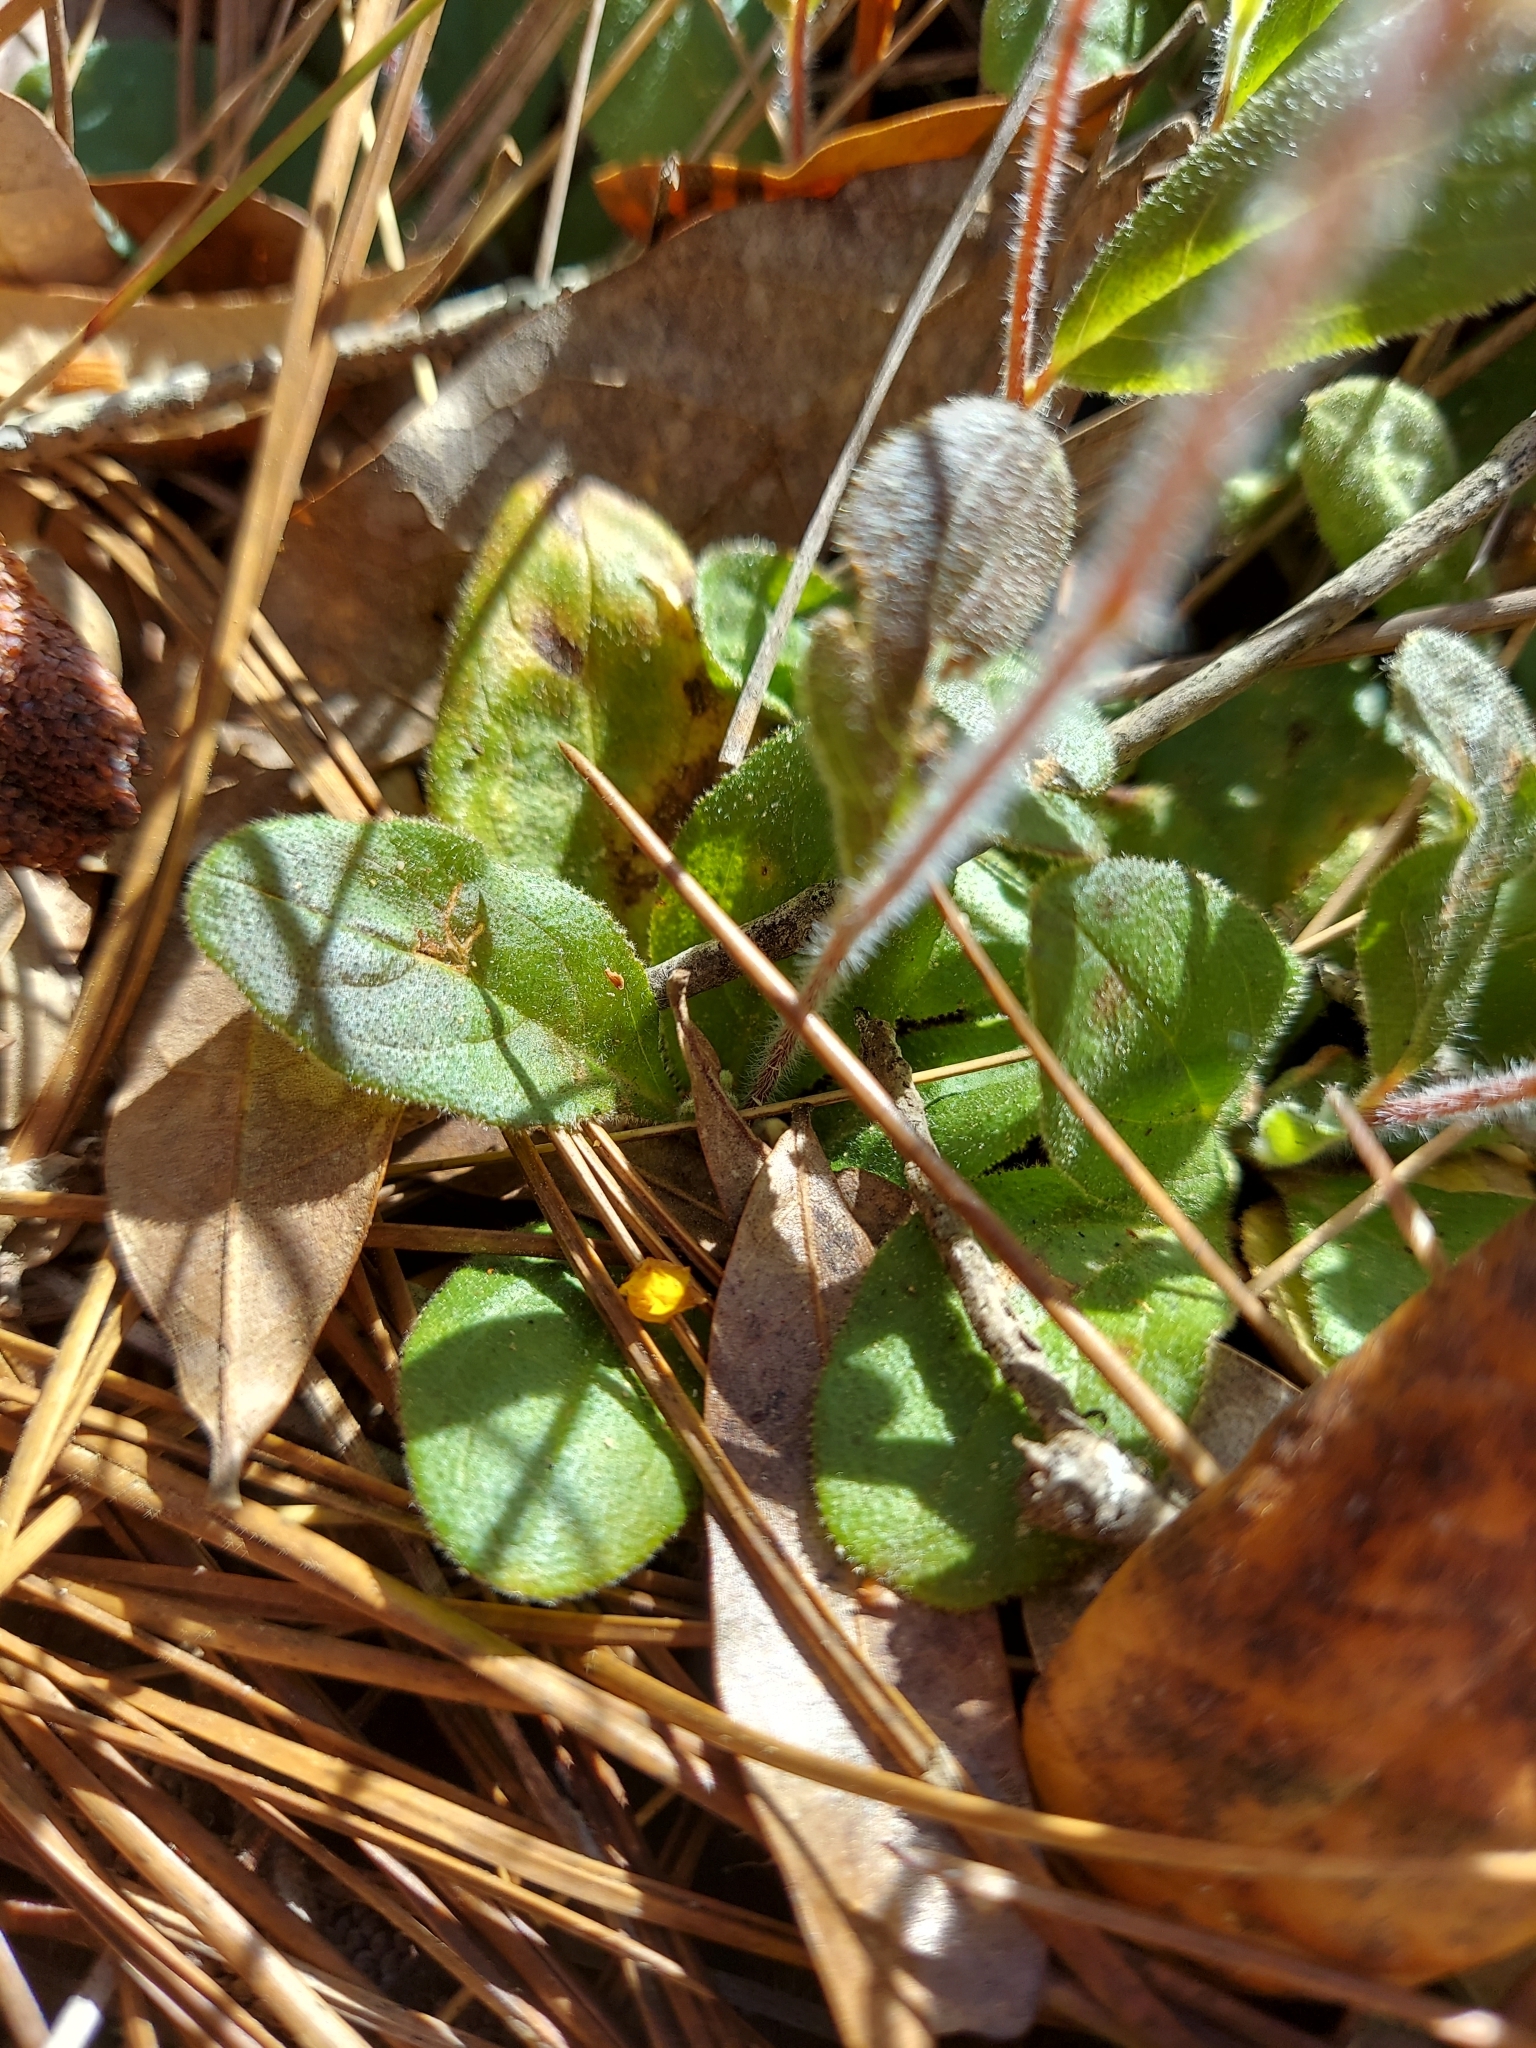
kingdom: Plantae
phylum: Tracheophyta
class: Magnoliopsida
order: Malvales
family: Cistaceae
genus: Crocanthemum
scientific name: Crocanthemum carolinianum
